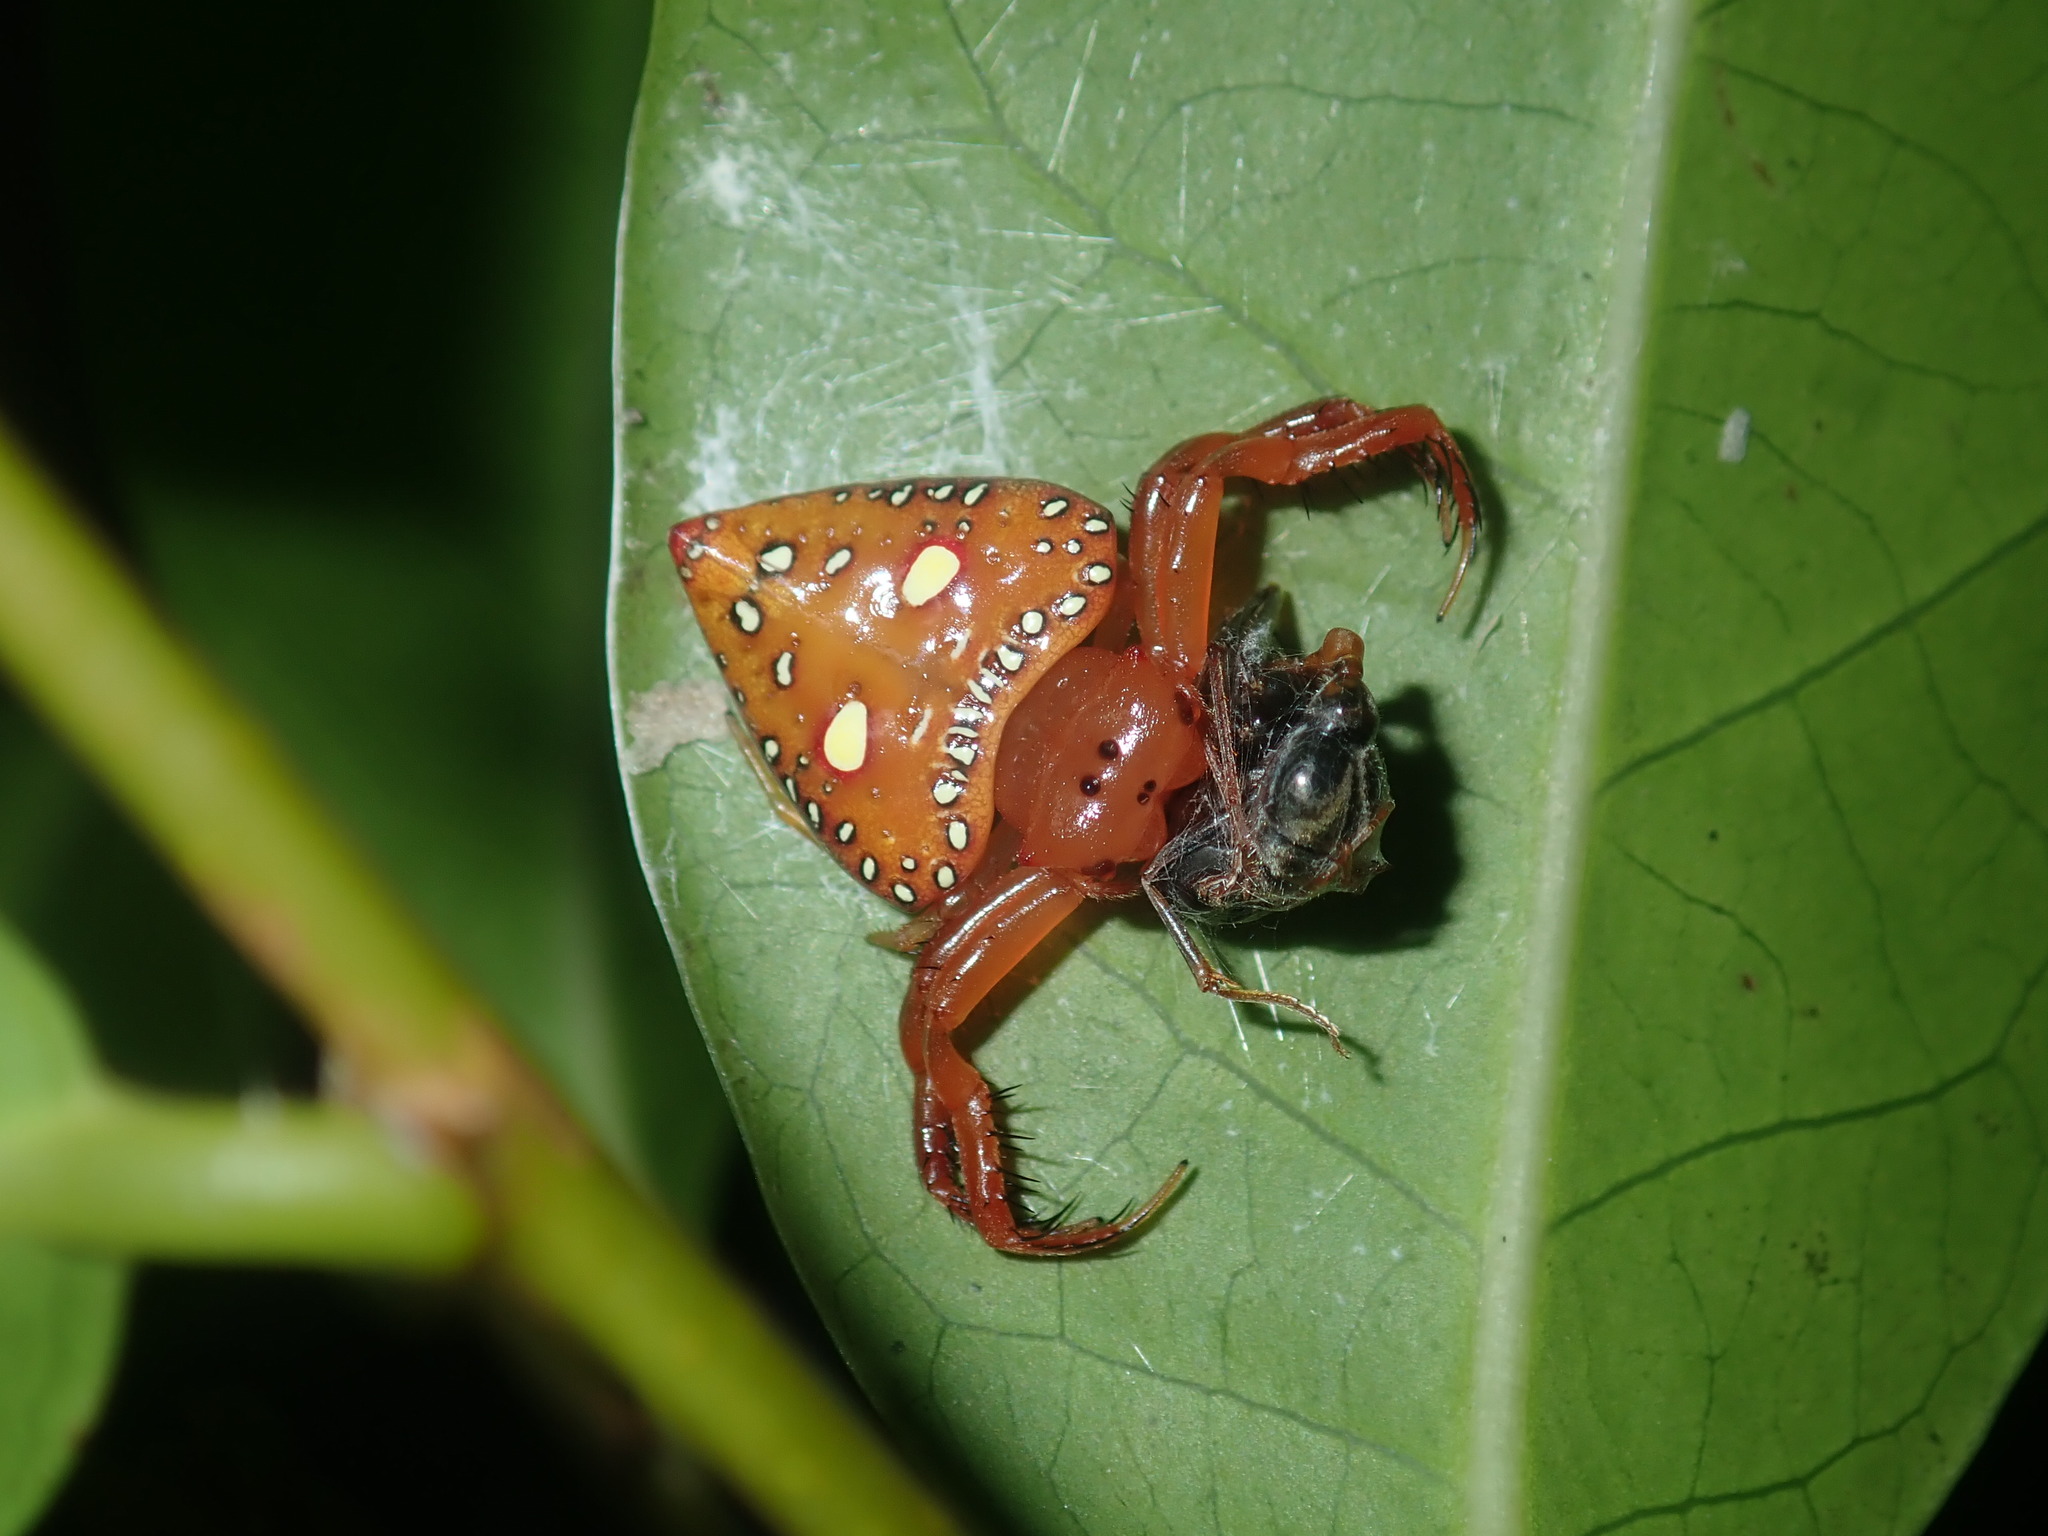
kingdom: Animalia
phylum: Arthropoda
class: Arachnida
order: Araneae
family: Arkyidae
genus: Arkys
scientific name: Arkys lancearius
